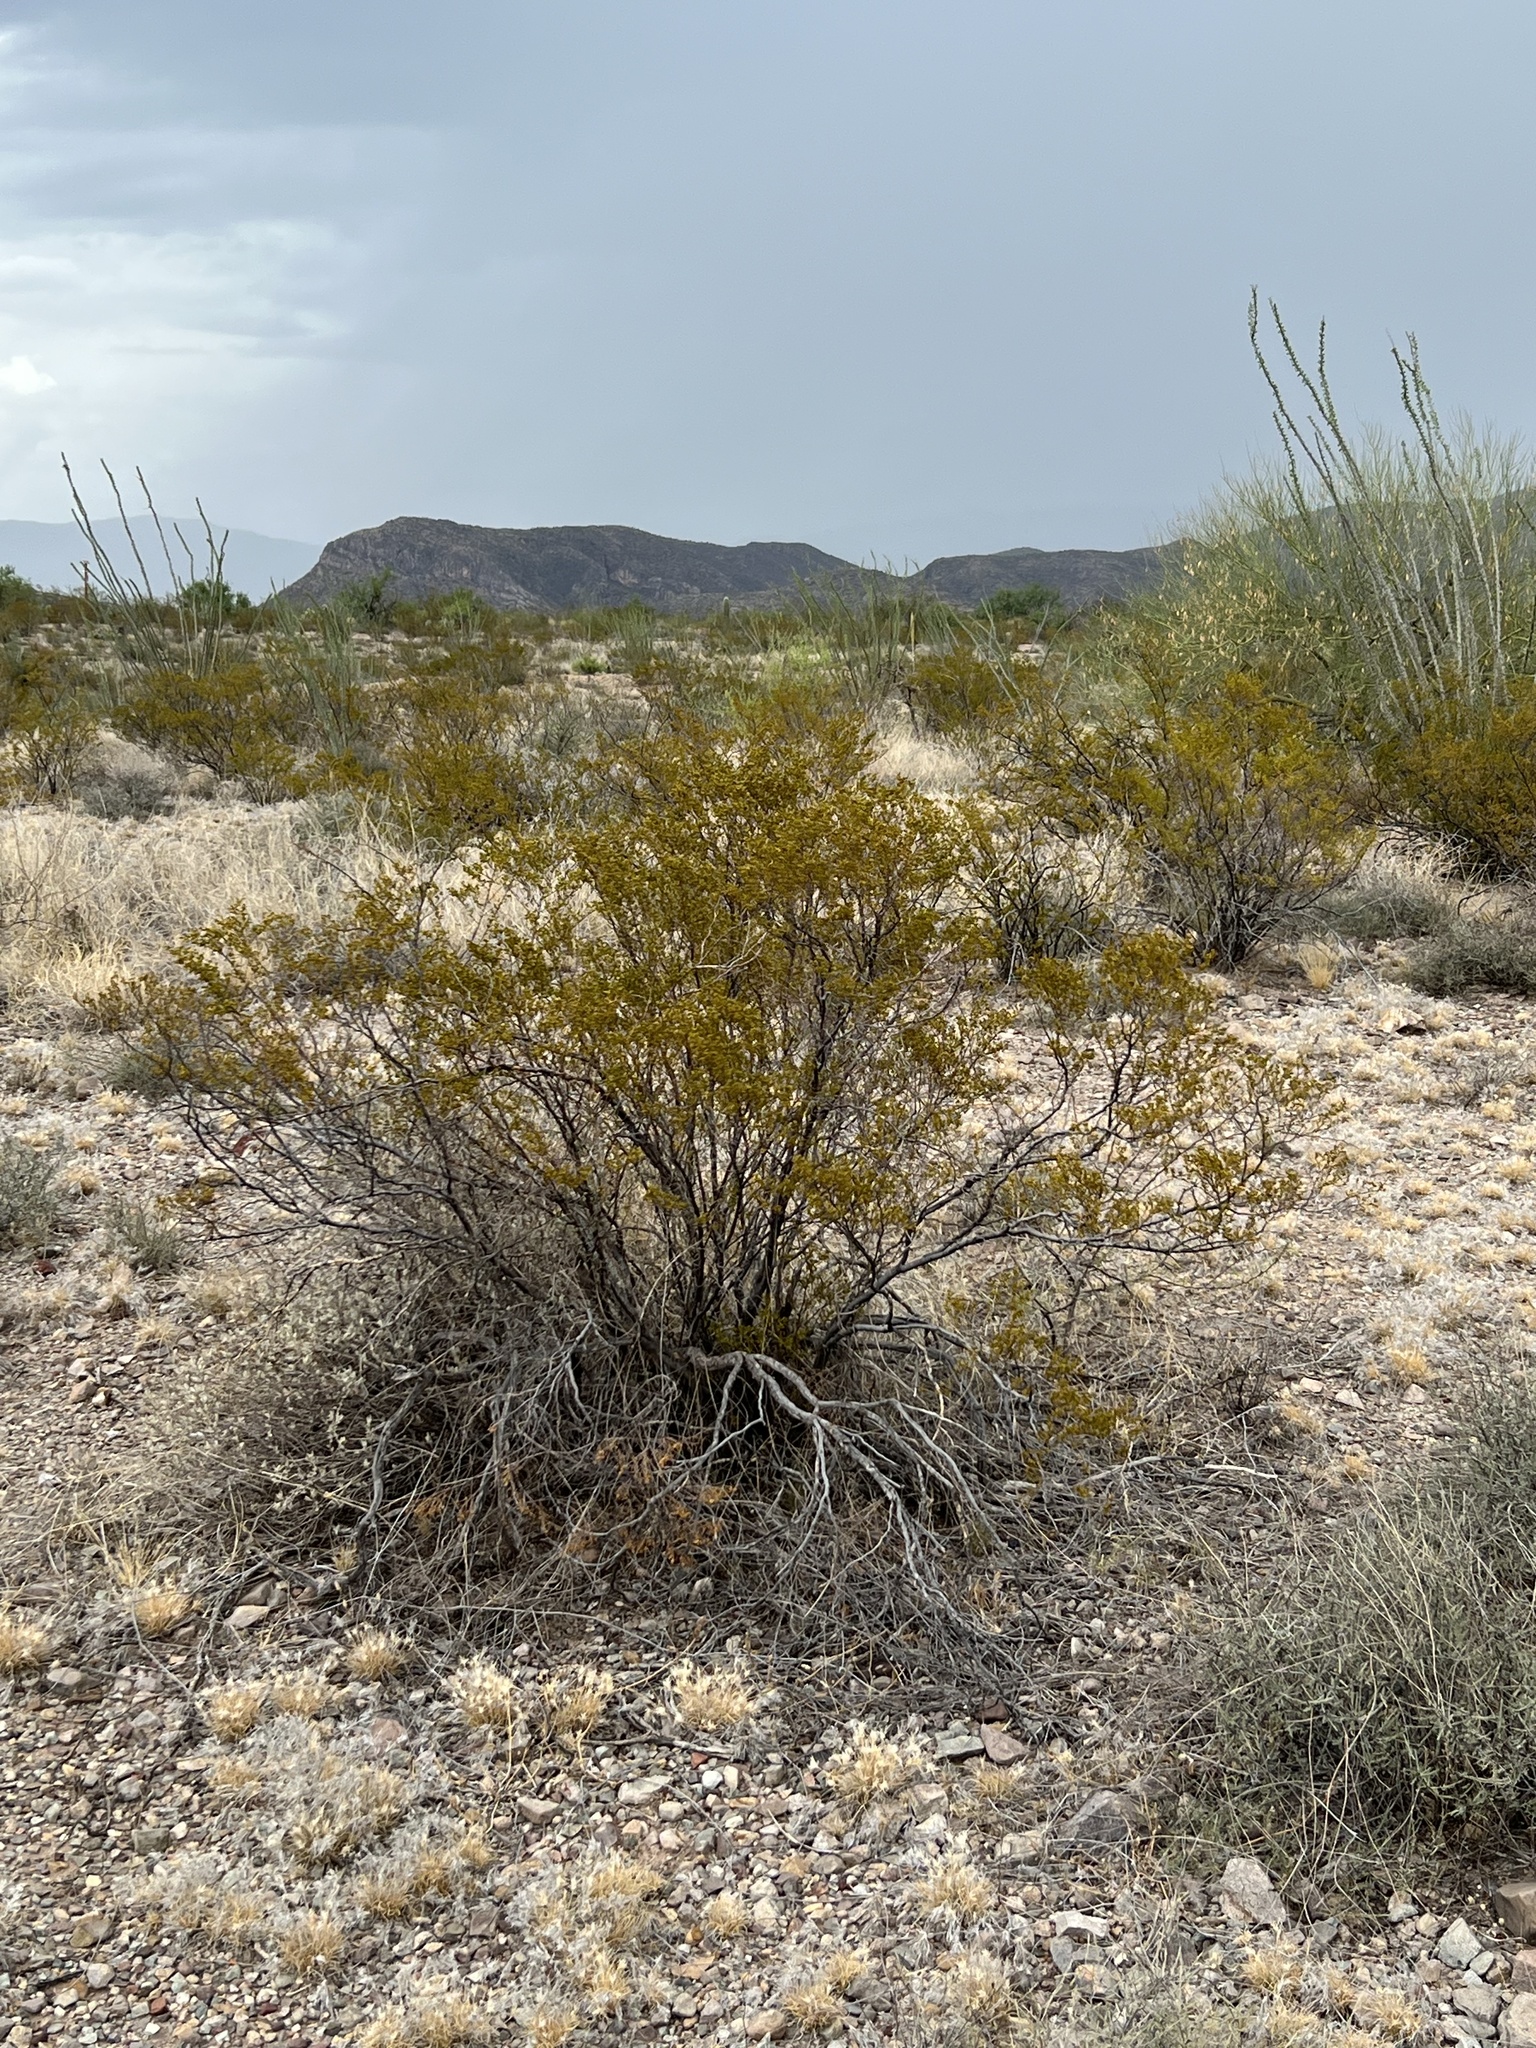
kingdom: Plantae
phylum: Tracheophyta
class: Magnoliopsida
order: Zygophyllales
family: Zygophyllaceae
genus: Larrea
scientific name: Larrea tridentata
